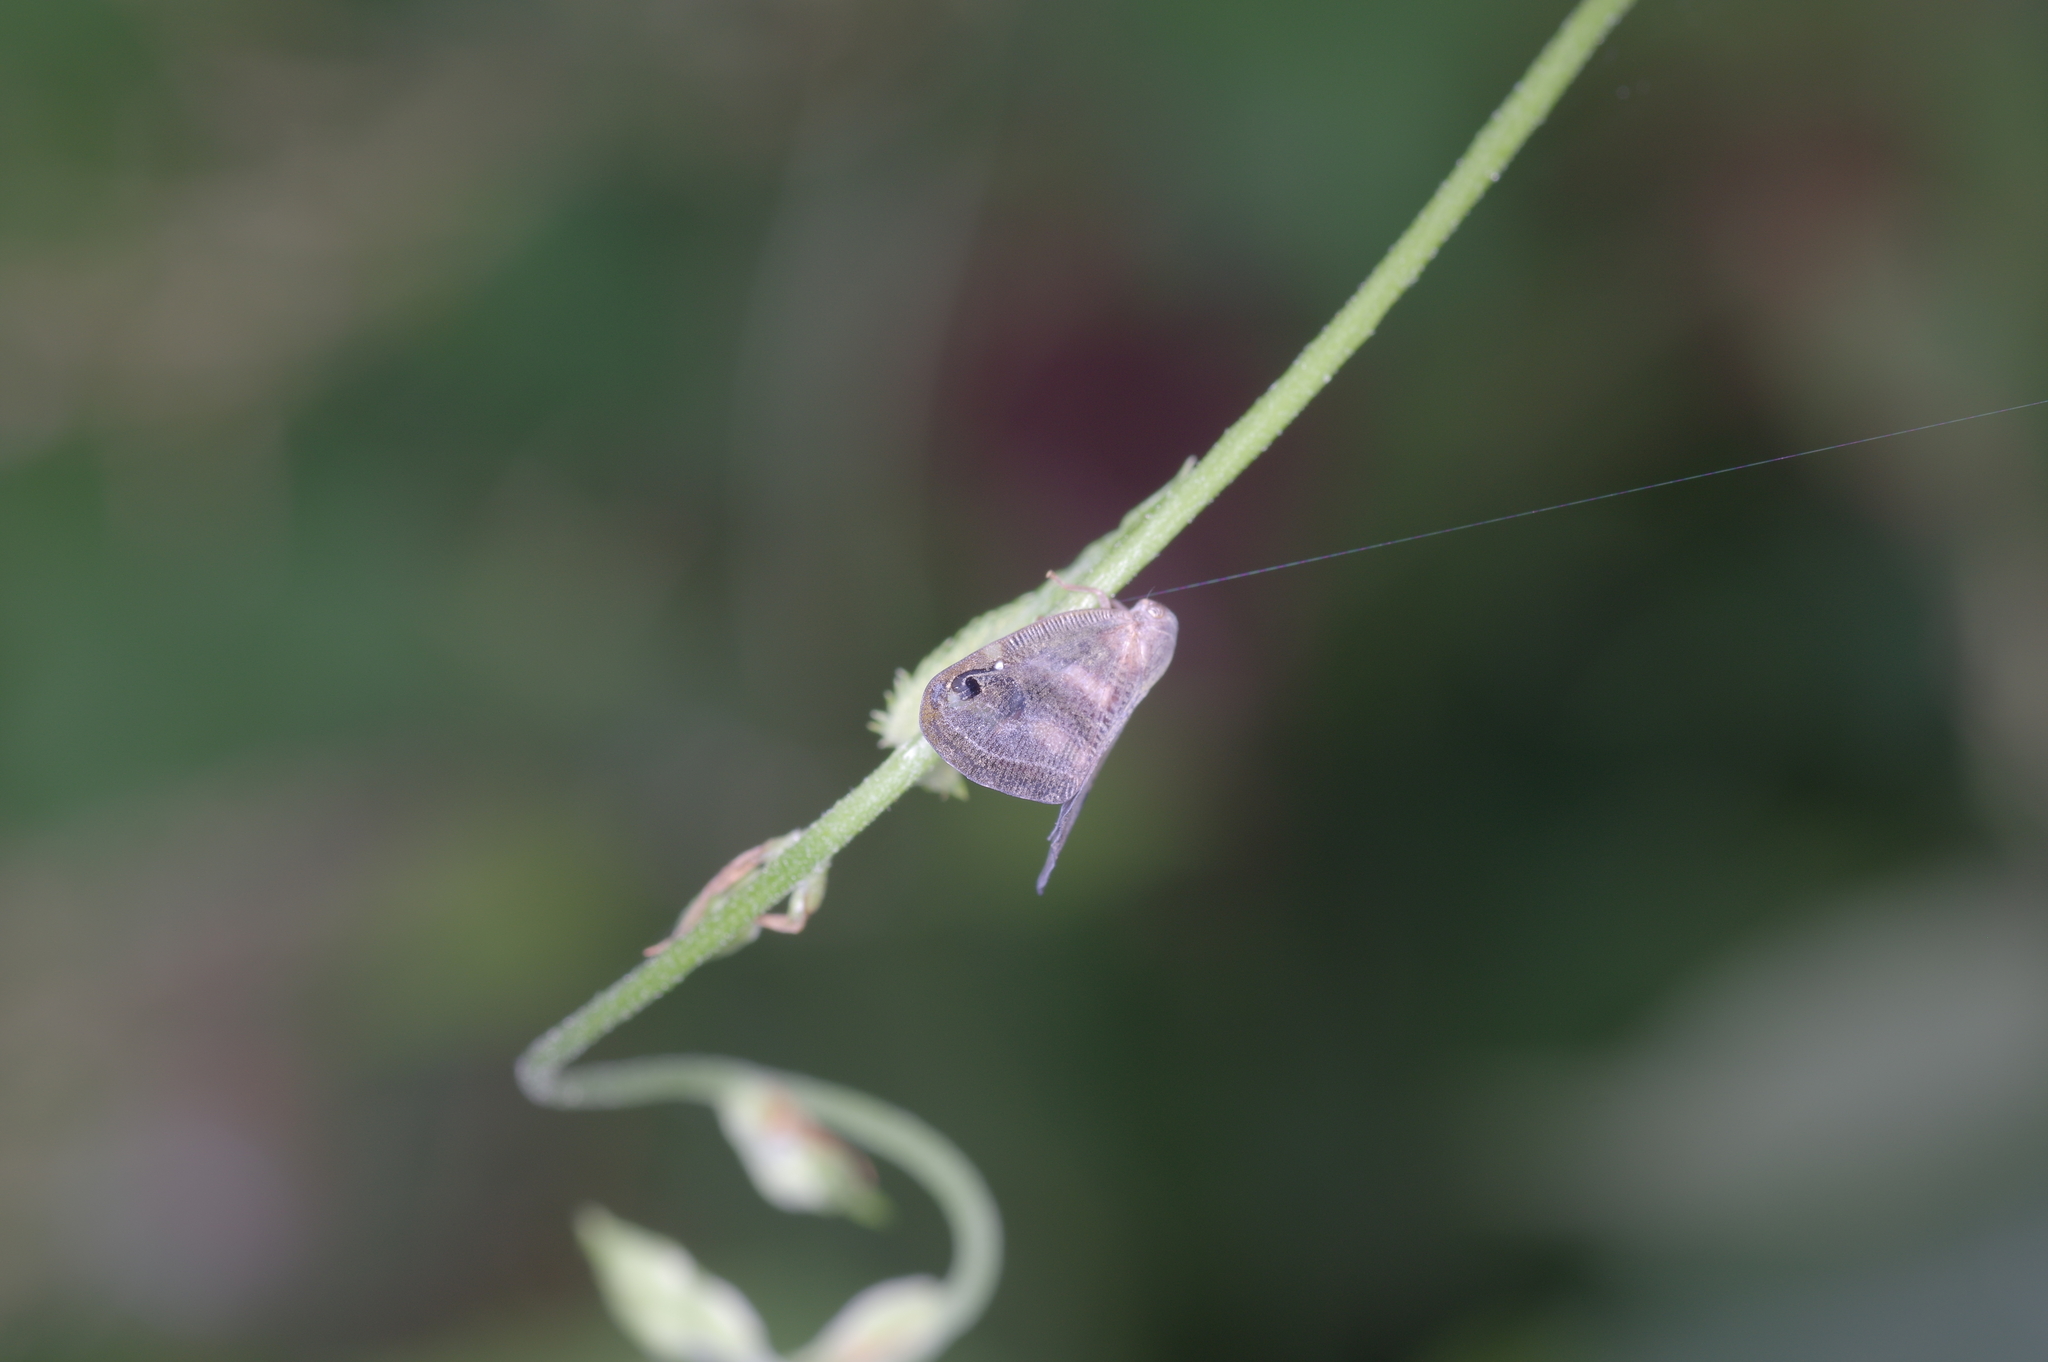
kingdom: Animalia
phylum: Arthropoda
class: Insecta
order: Hemiptera
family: Ricaniidae
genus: Orosanga
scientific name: Orosanga japonica
